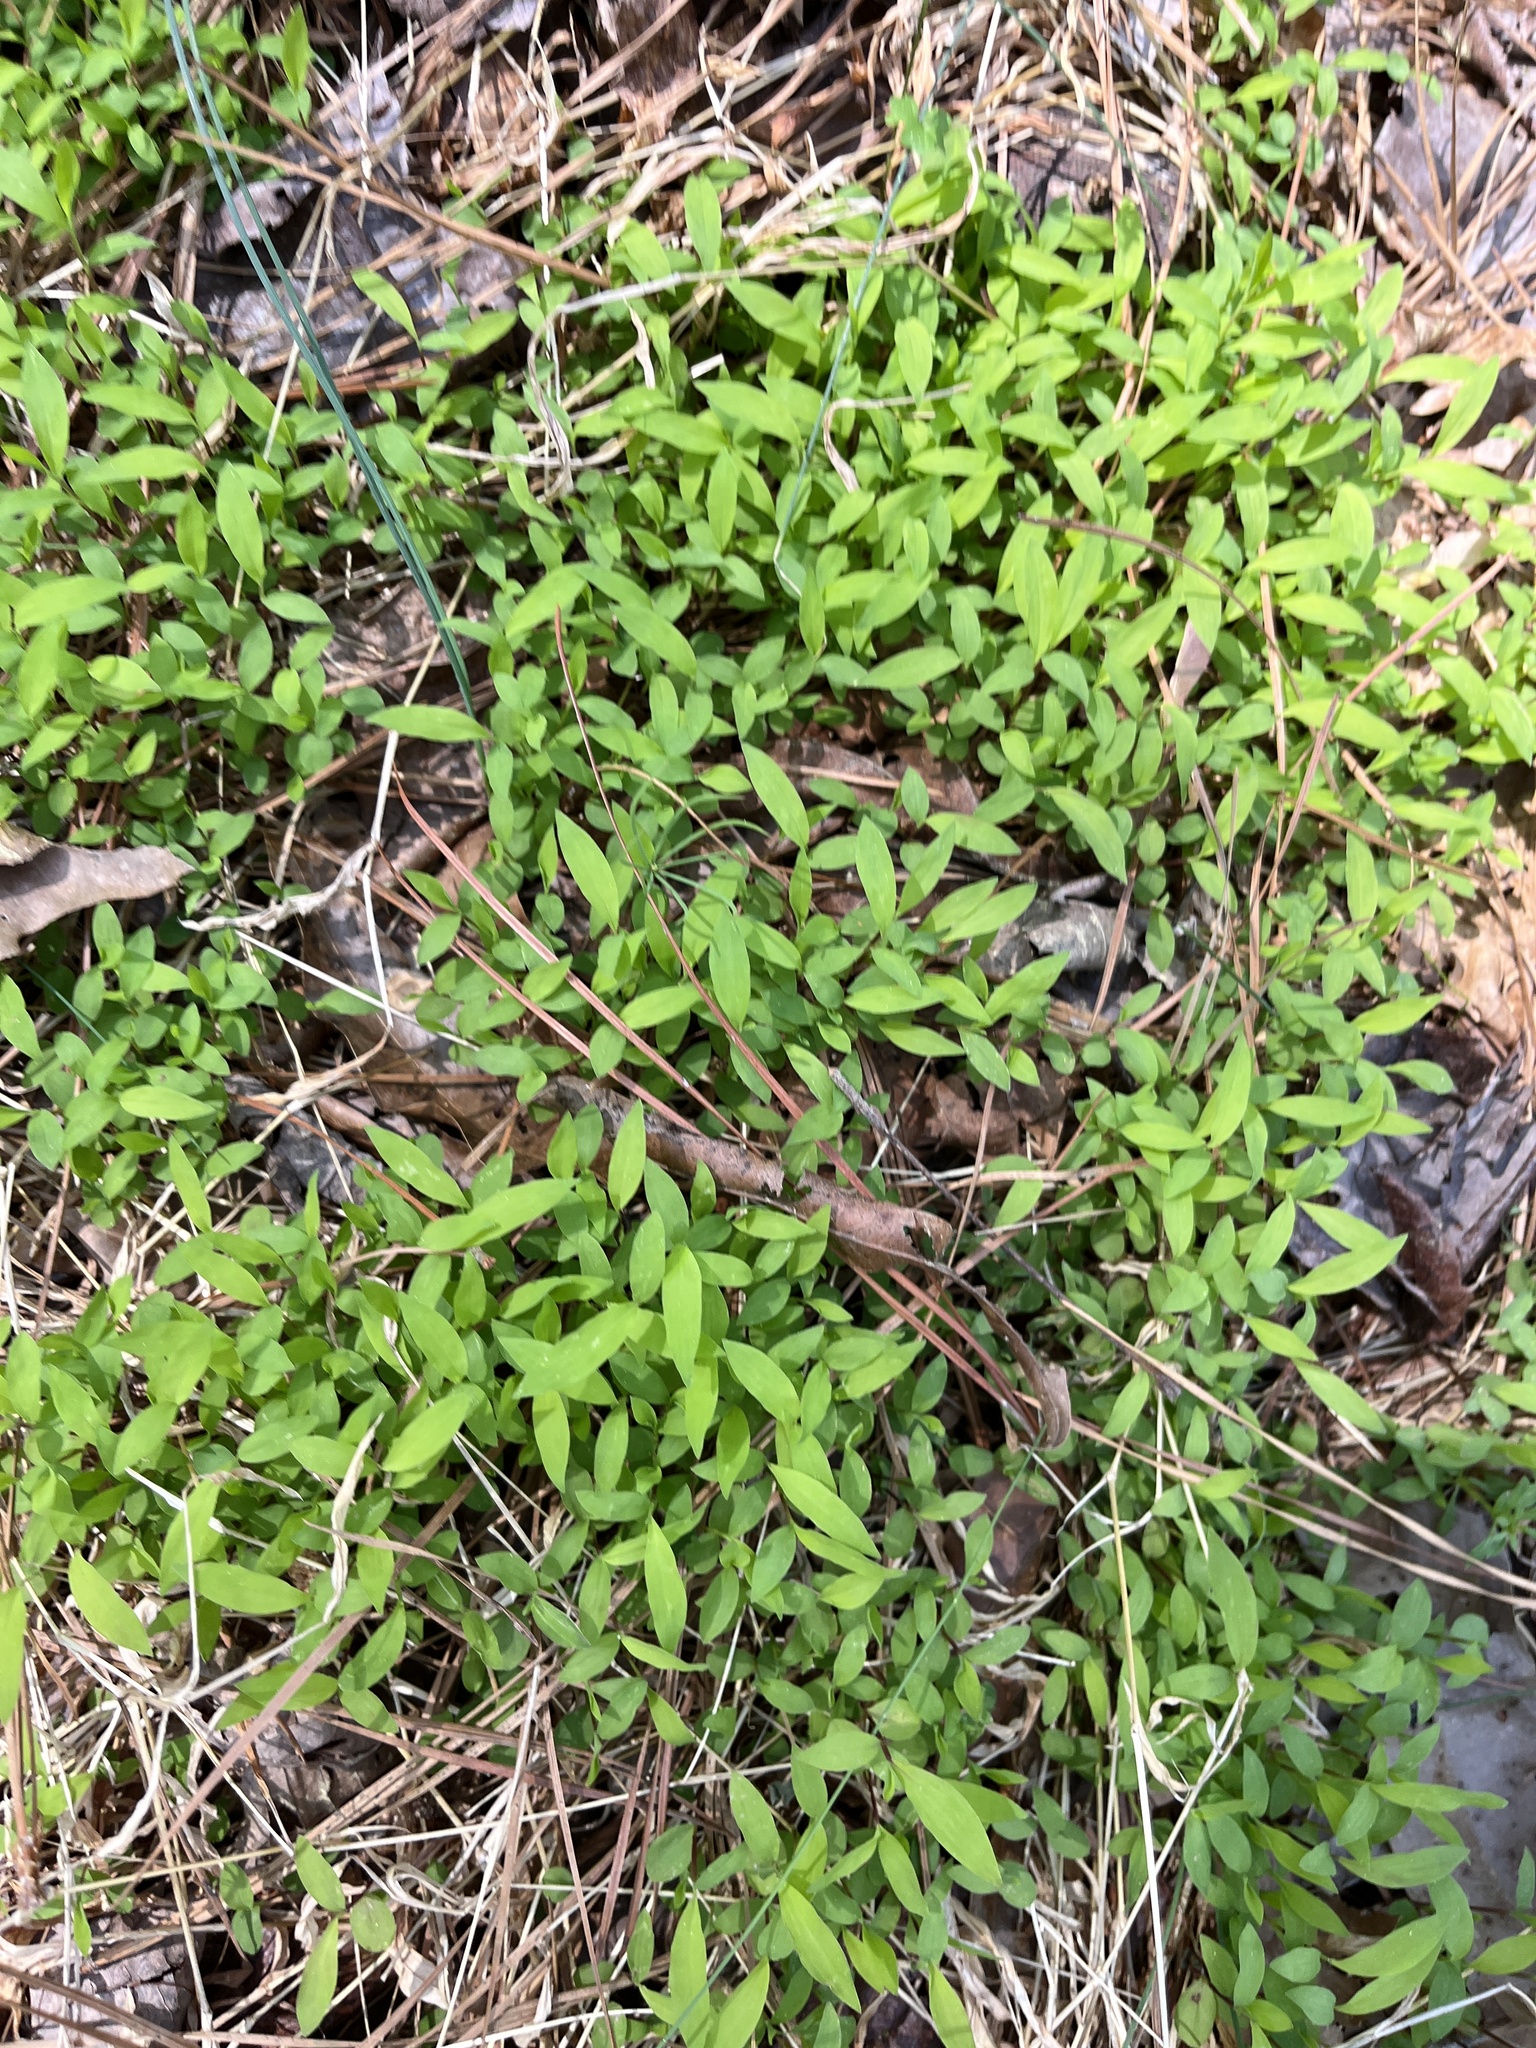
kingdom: Plantae
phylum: Tracheophyta
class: Liliopsida
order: Poales
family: Poaceae
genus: Microstegium
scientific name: Microstegium vimineum
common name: Japanese stiltgrass
